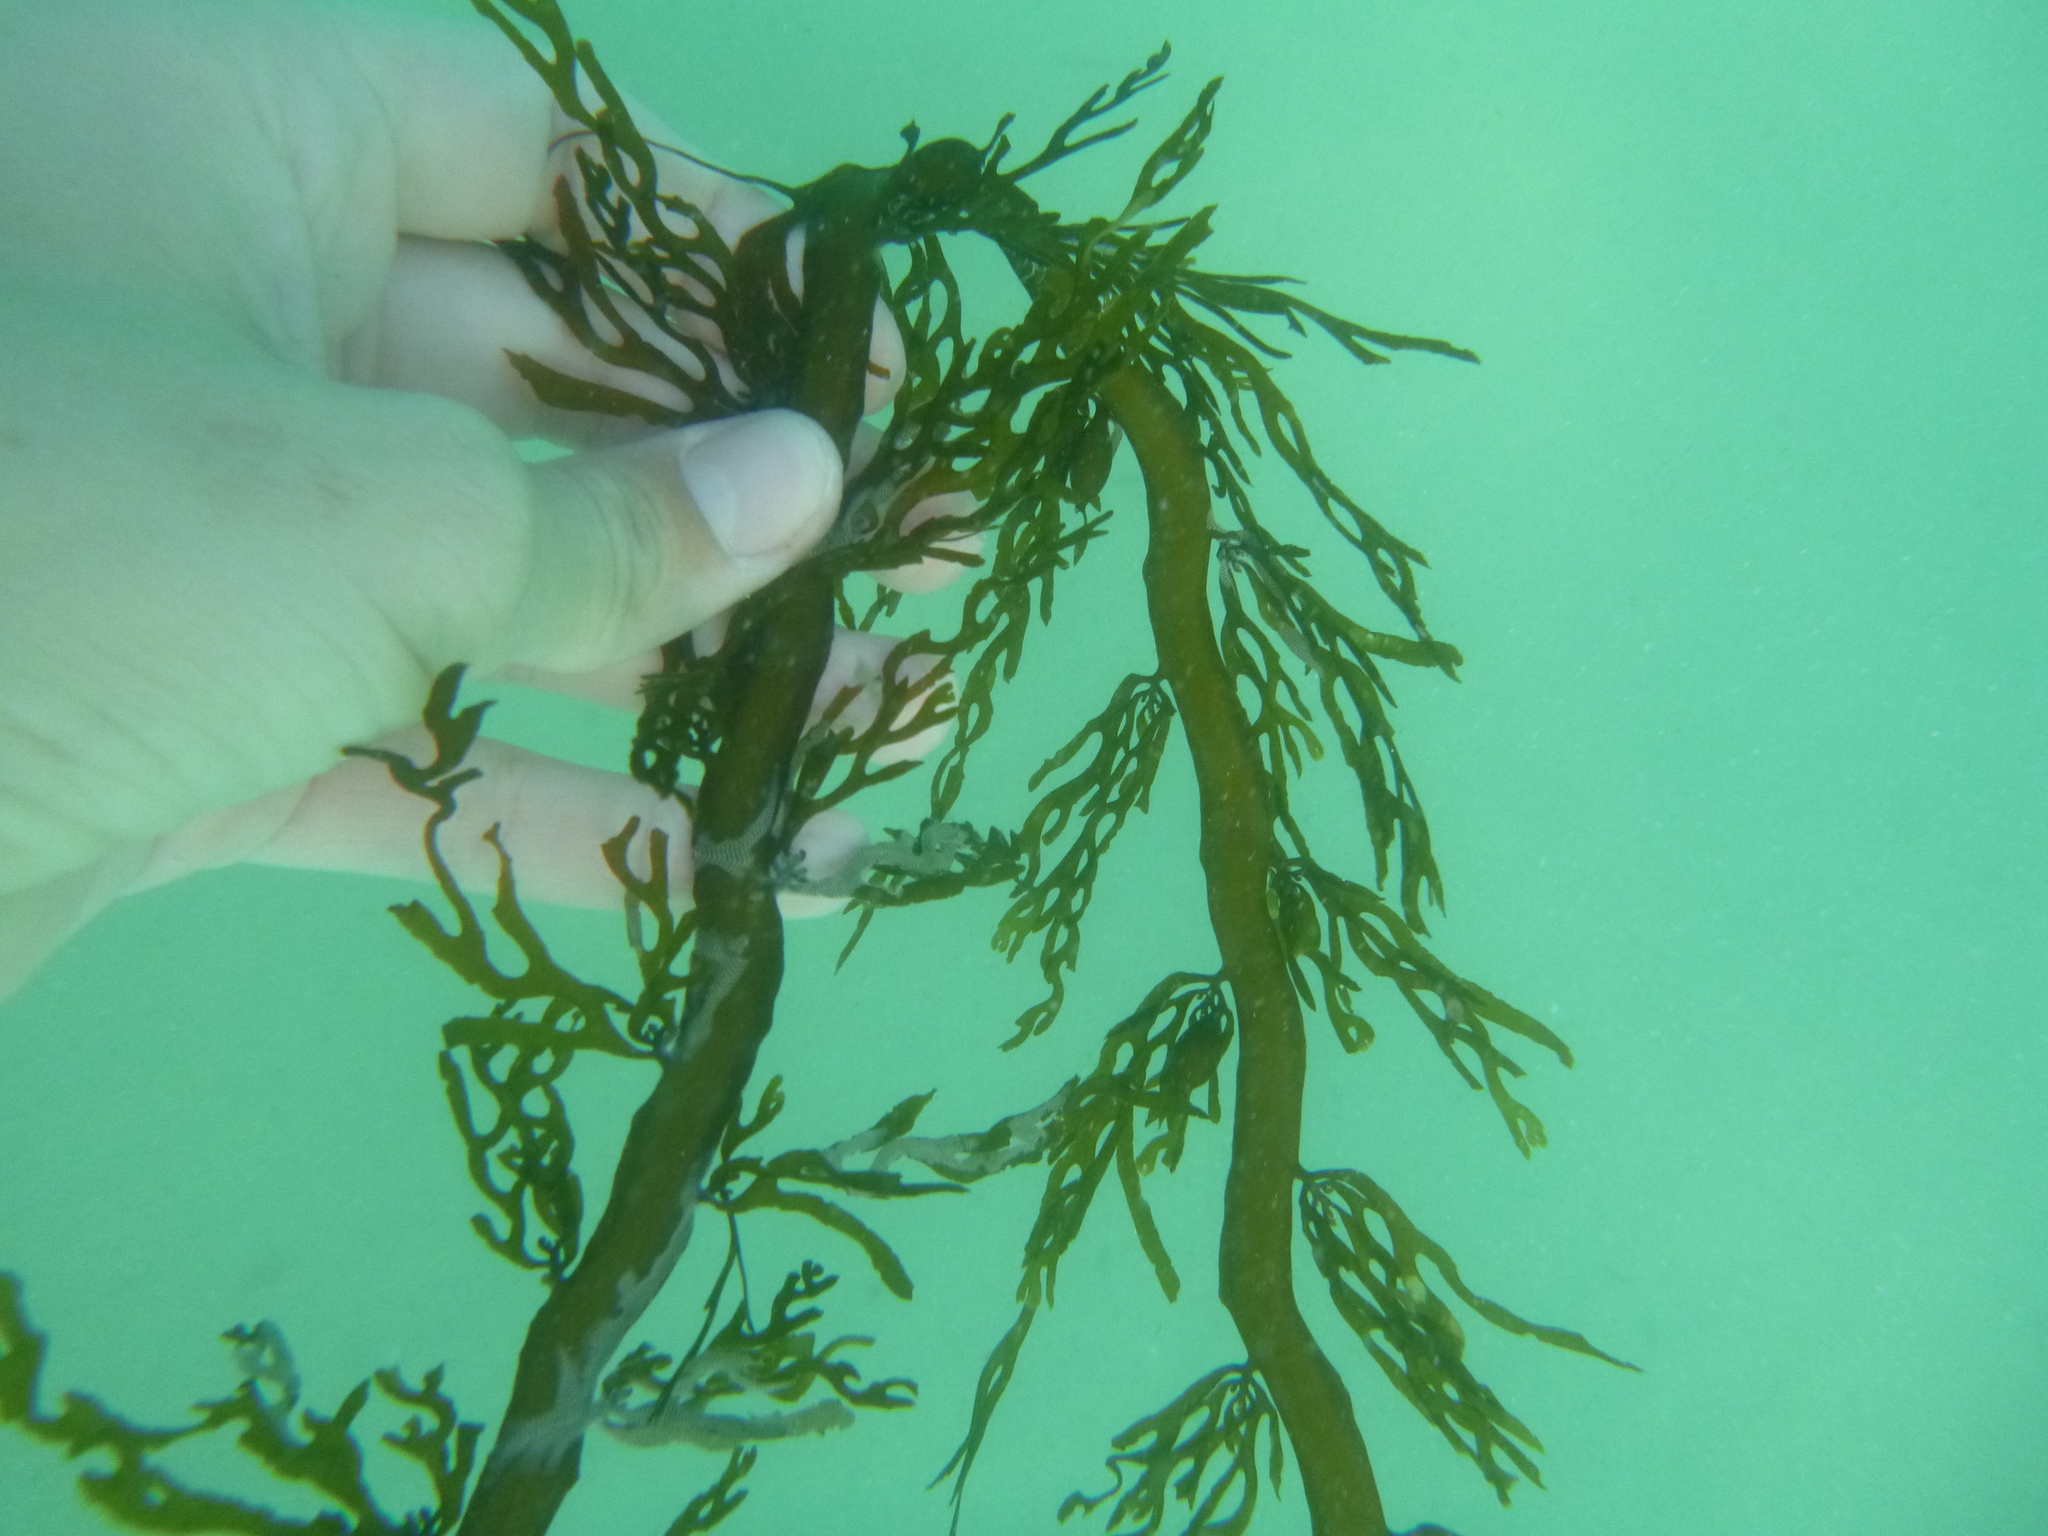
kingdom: Chromista
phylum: Ochrophyta
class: Phaeophyceae
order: Fucales
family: Sargassaceae
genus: Carpophyllum
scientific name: Carpophyllum plumosum
